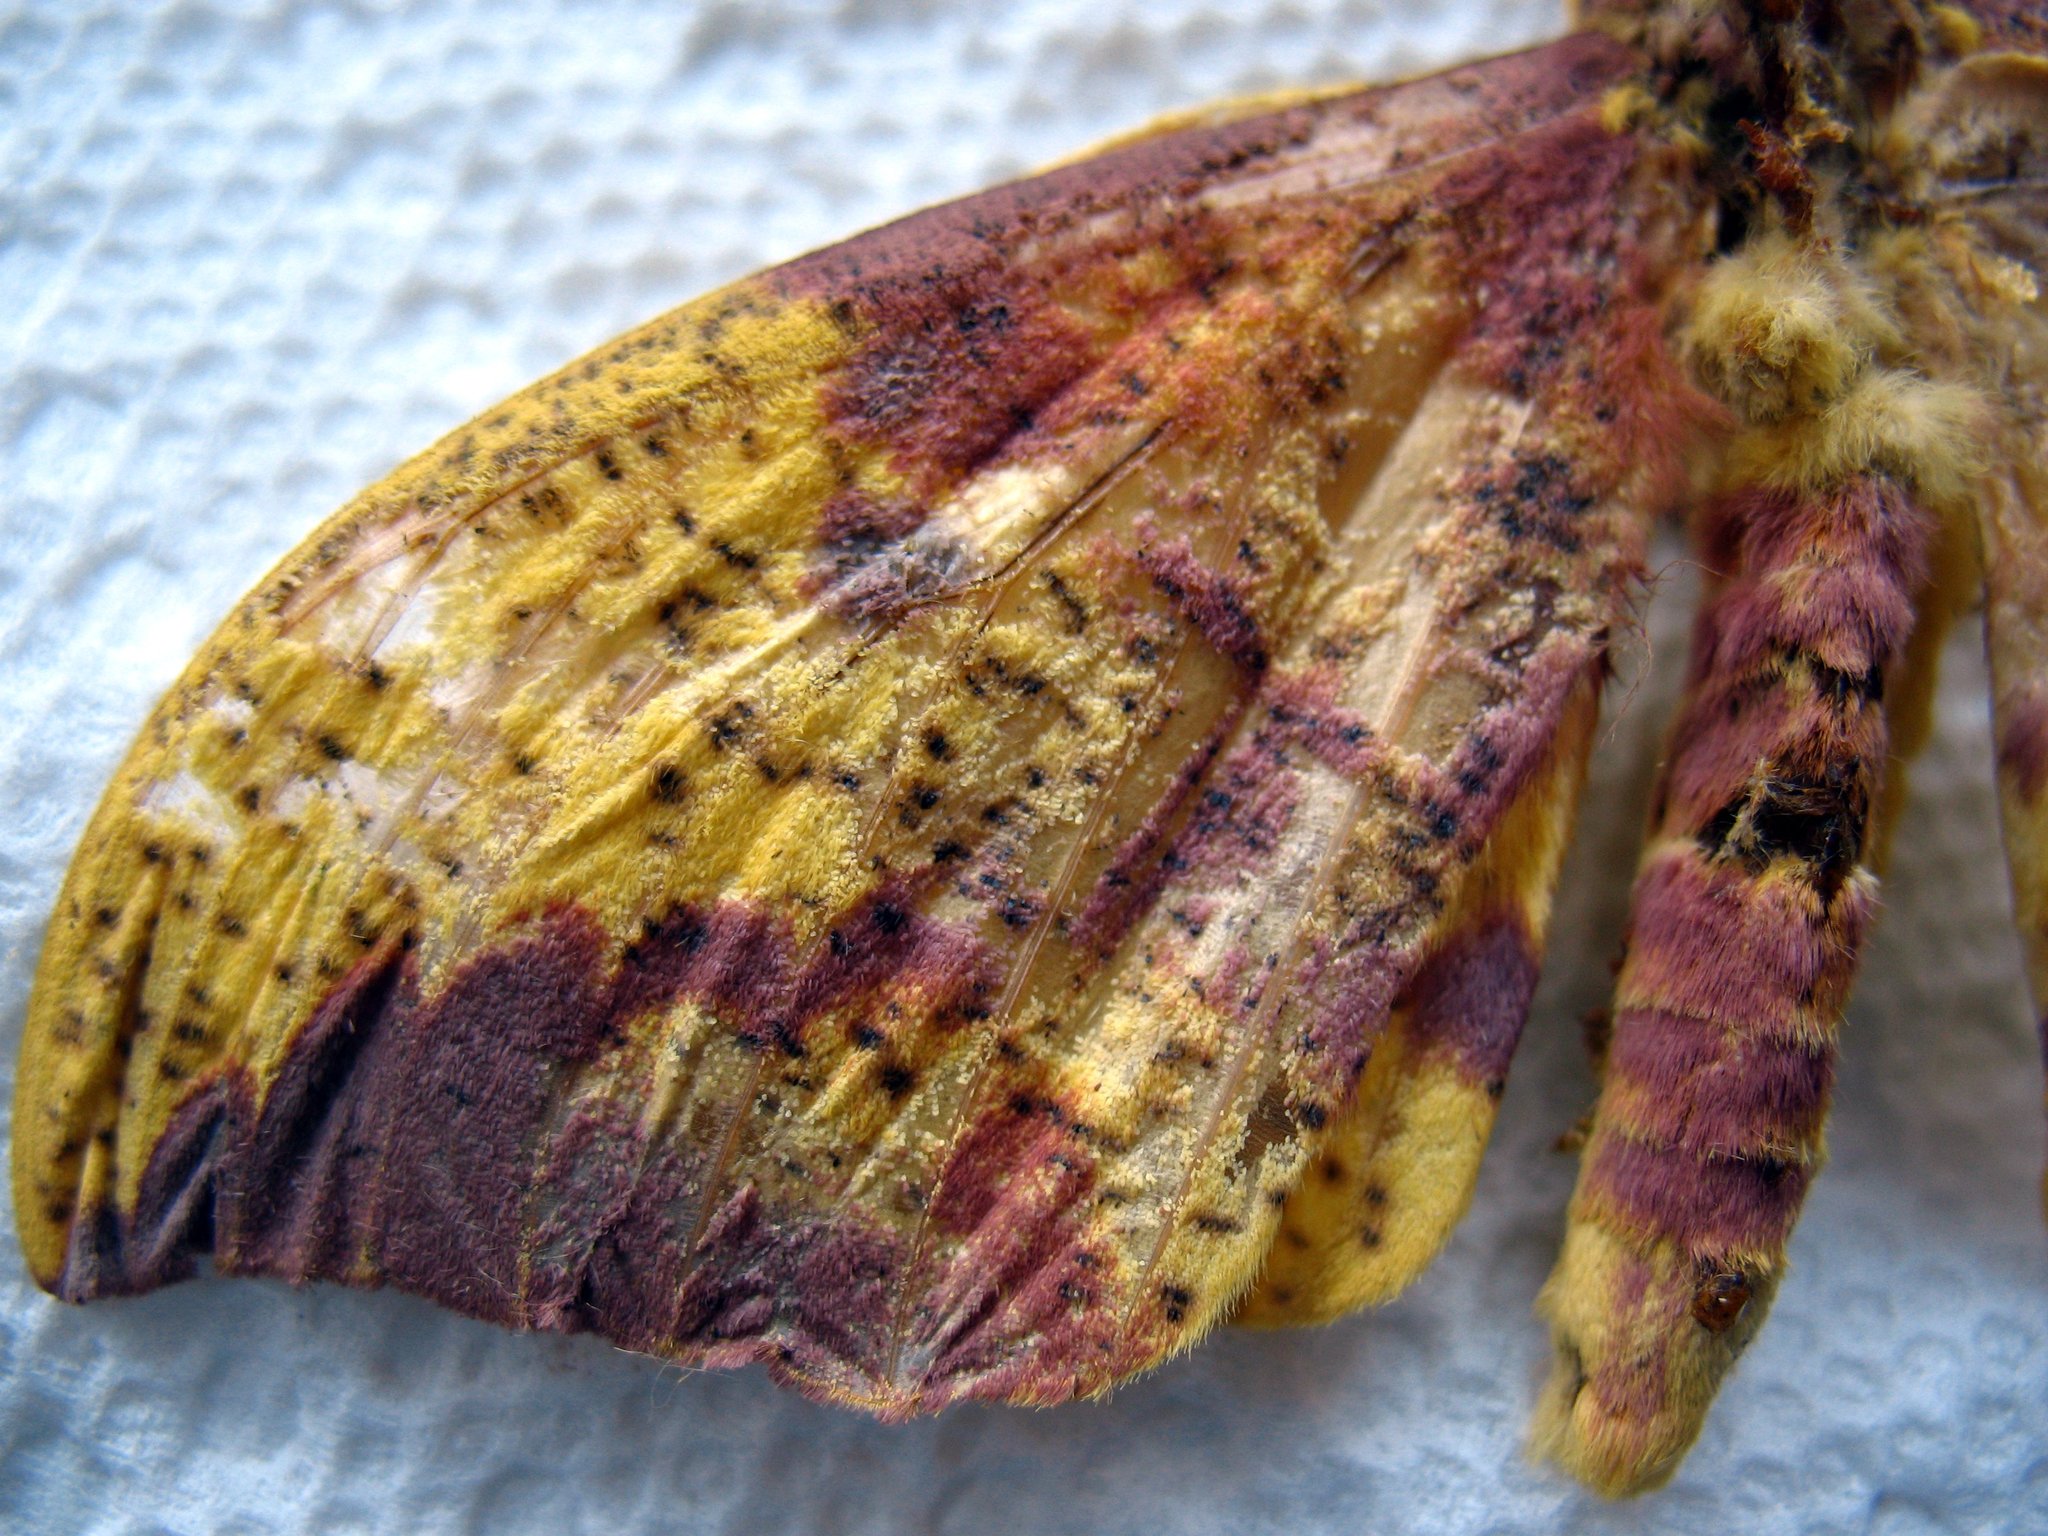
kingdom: Animalia
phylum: Arthropoda
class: Insecta
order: Lepidoptera
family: Saturniidae
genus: Eacles
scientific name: Eacles imperialis
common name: Imperial moth
